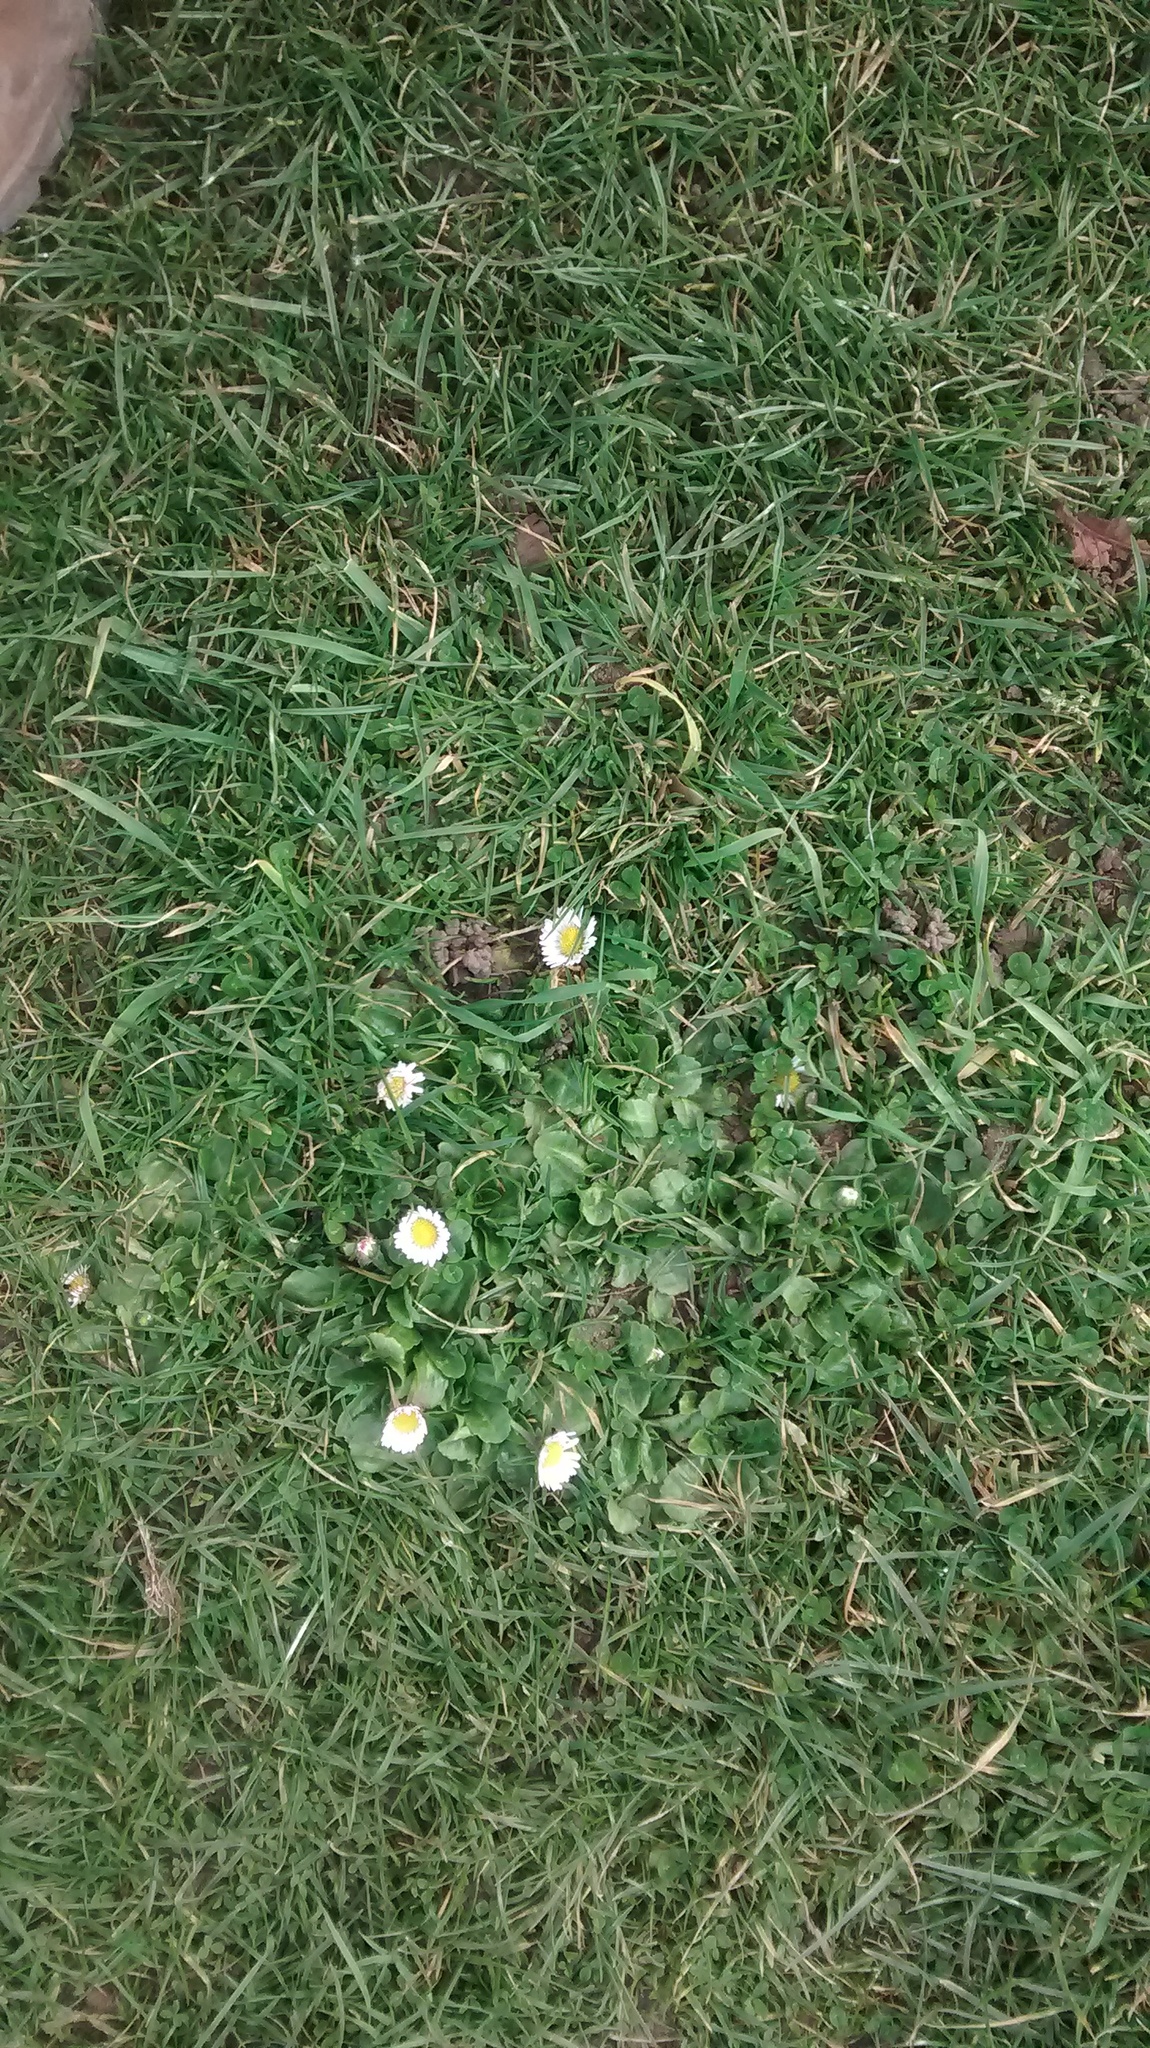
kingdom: Plantae
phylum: Tracheophyta
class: Magnoliopsida
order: Asterales
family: Asteraceae
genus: Bellis
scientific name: Bellis perennis
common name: Lawndaisy
